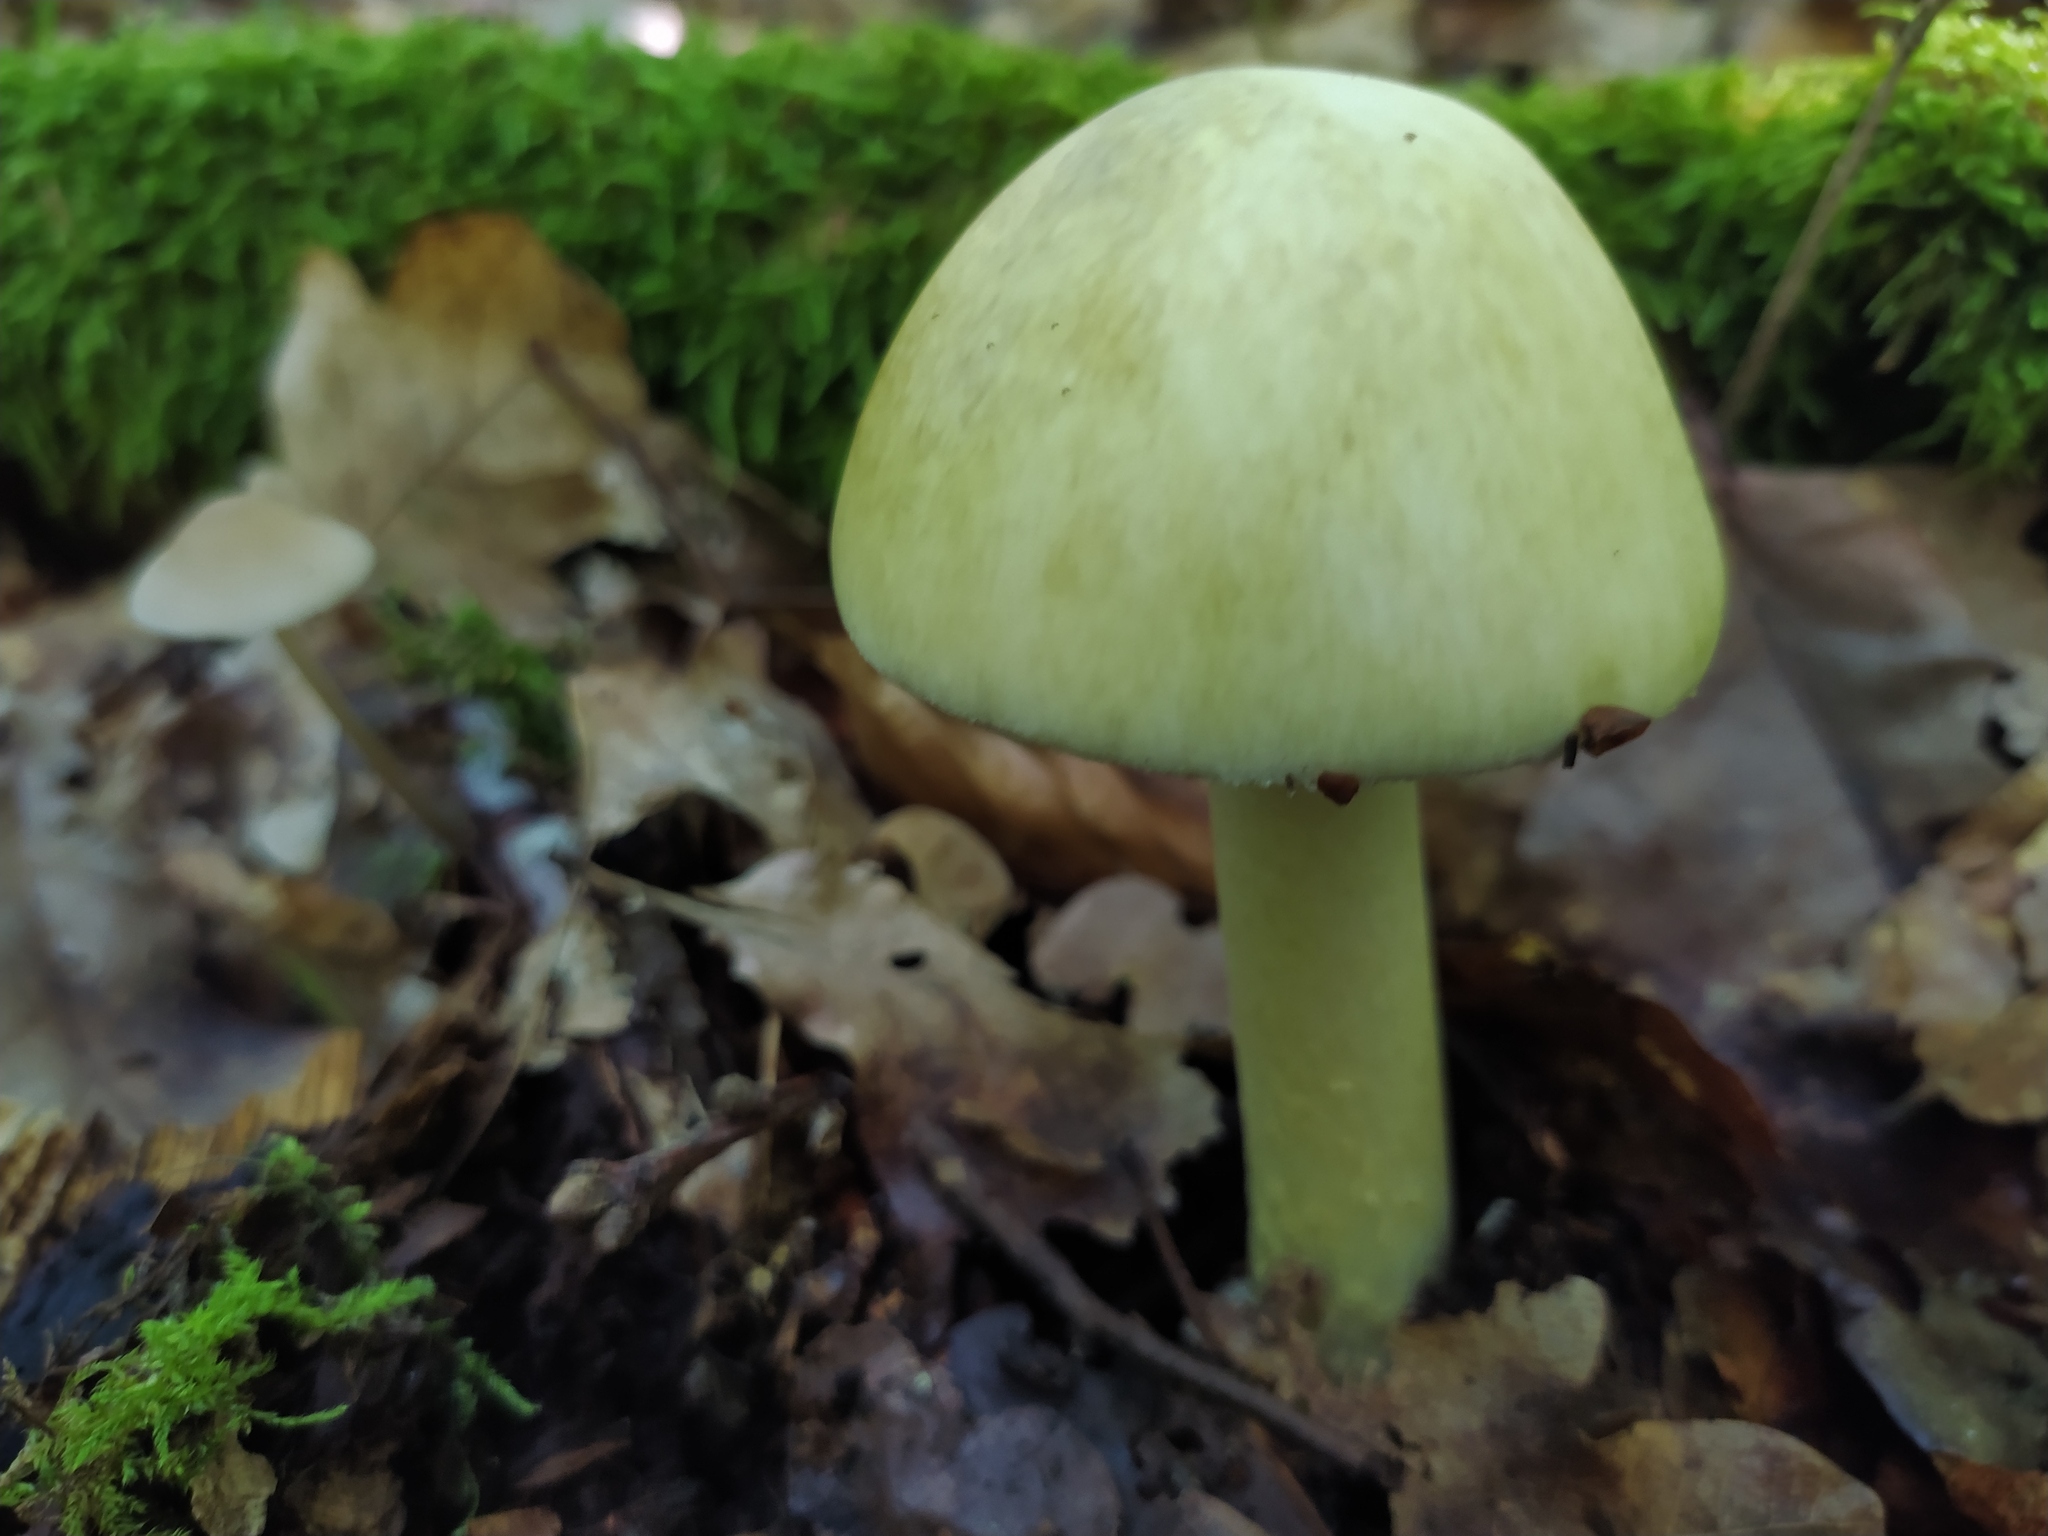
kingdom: Fungi
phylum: Basidiomycota
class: Agaricomycetes
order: Agaricales
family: Amanitaceae
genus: Amanita
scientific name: Amanita phalloides
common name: Death cap
